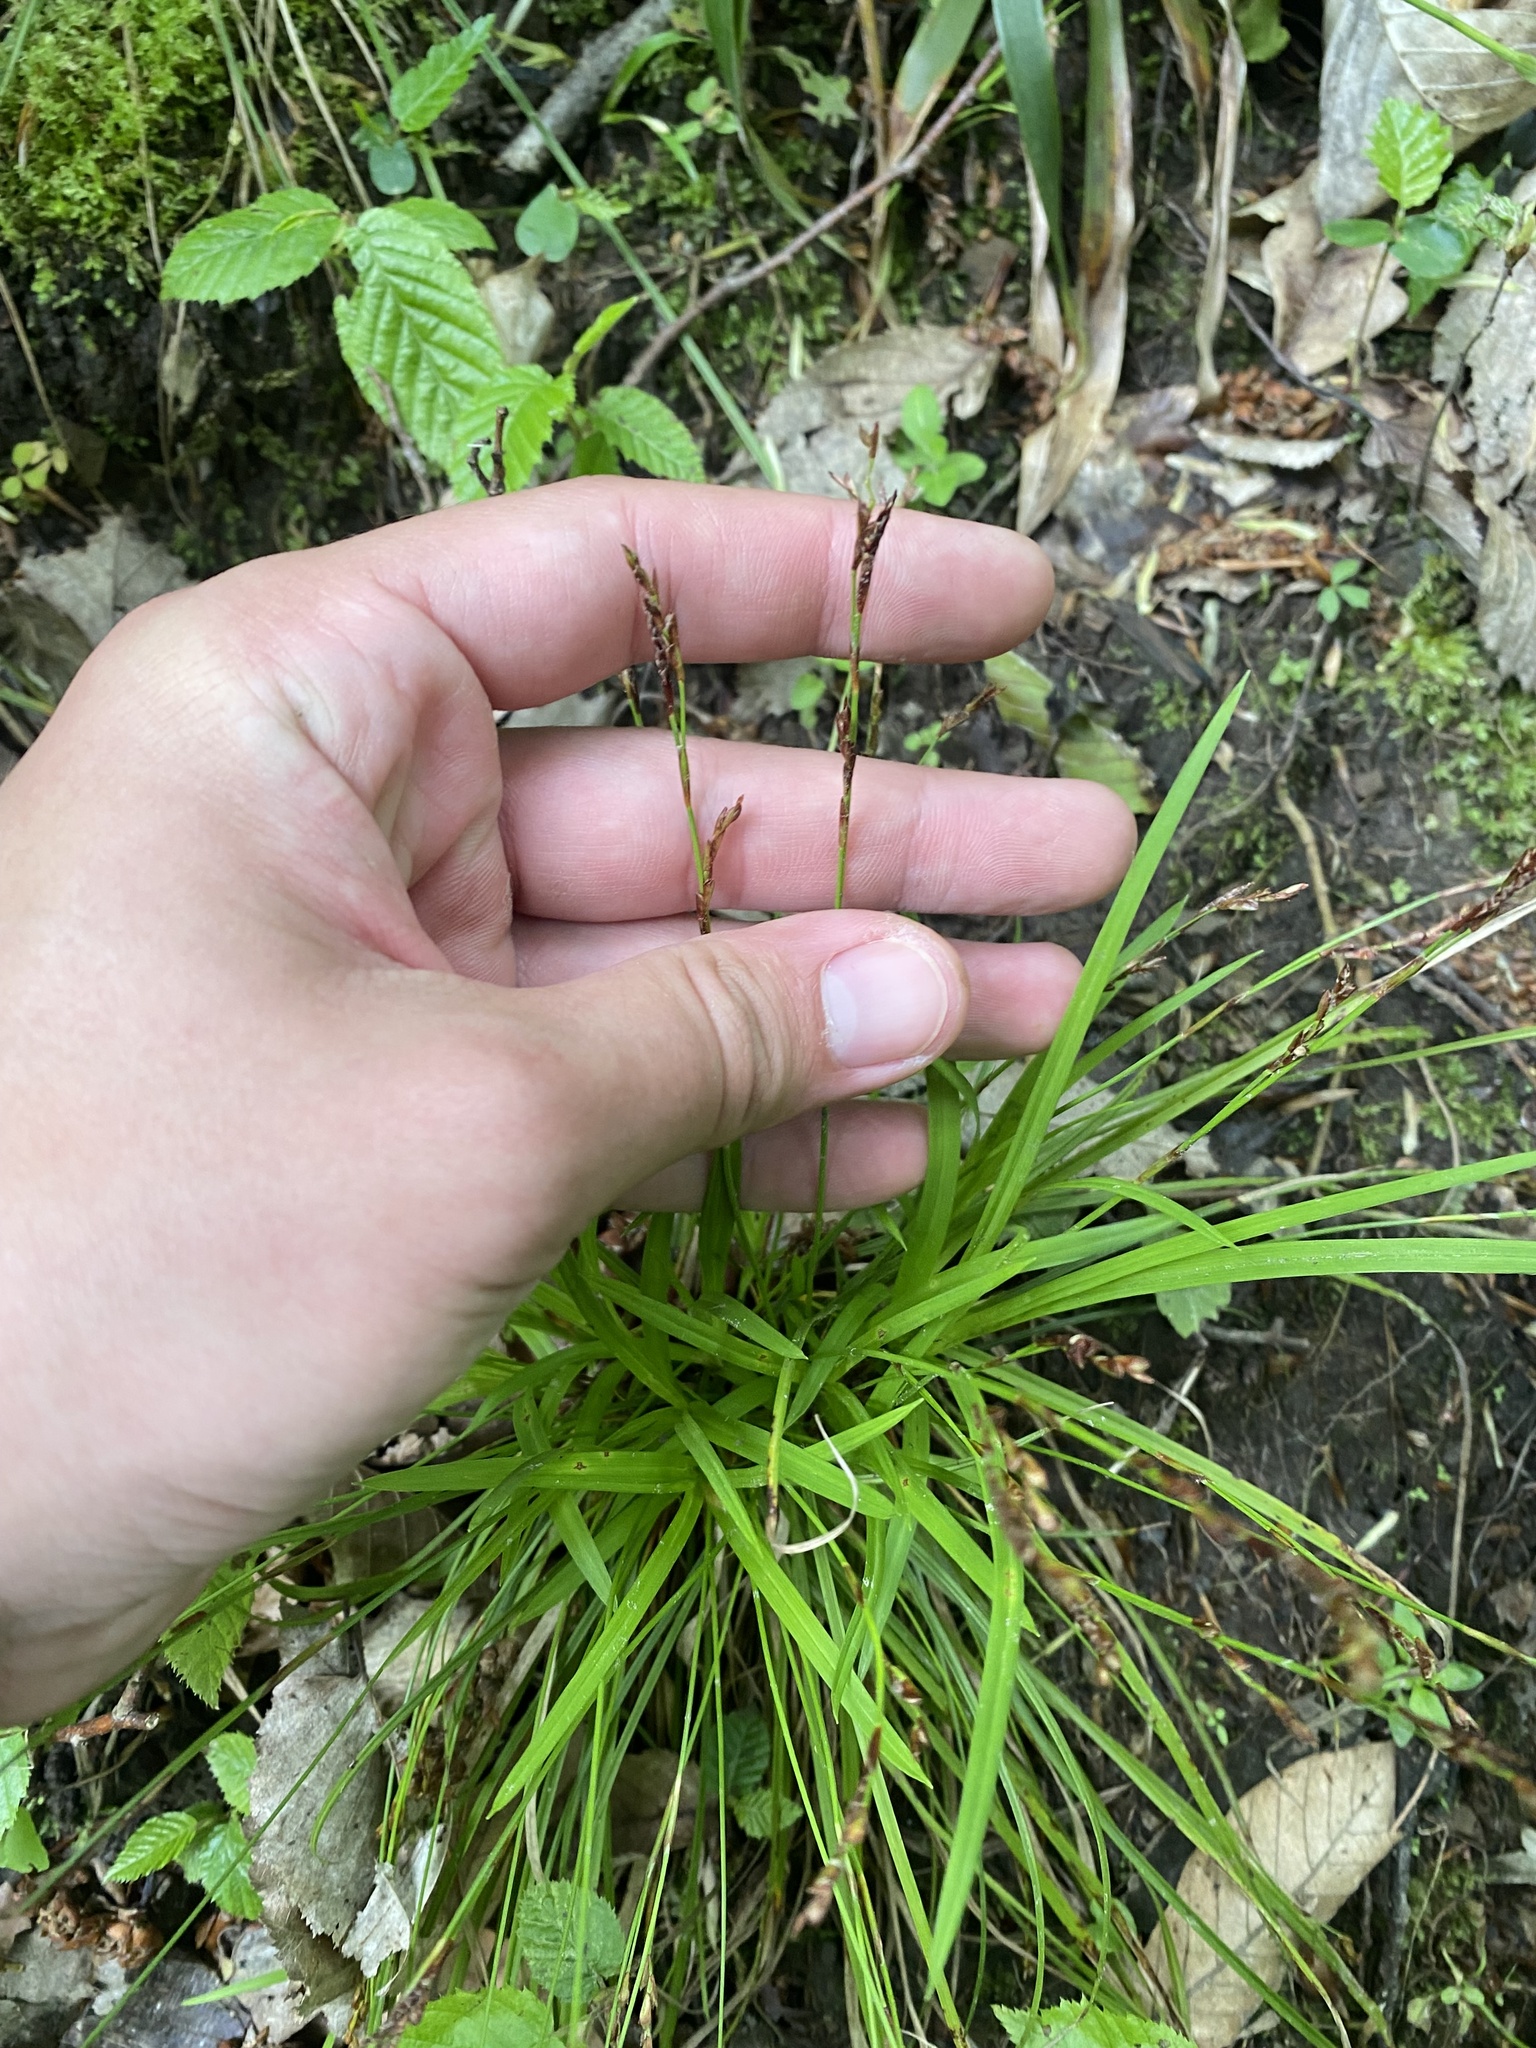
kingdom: Plantae
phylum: Tracheophyta
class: Liliopsida
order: Poales
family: Cyperaceae
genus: Carex
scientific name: Carex digitata
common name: Fingered sedge
